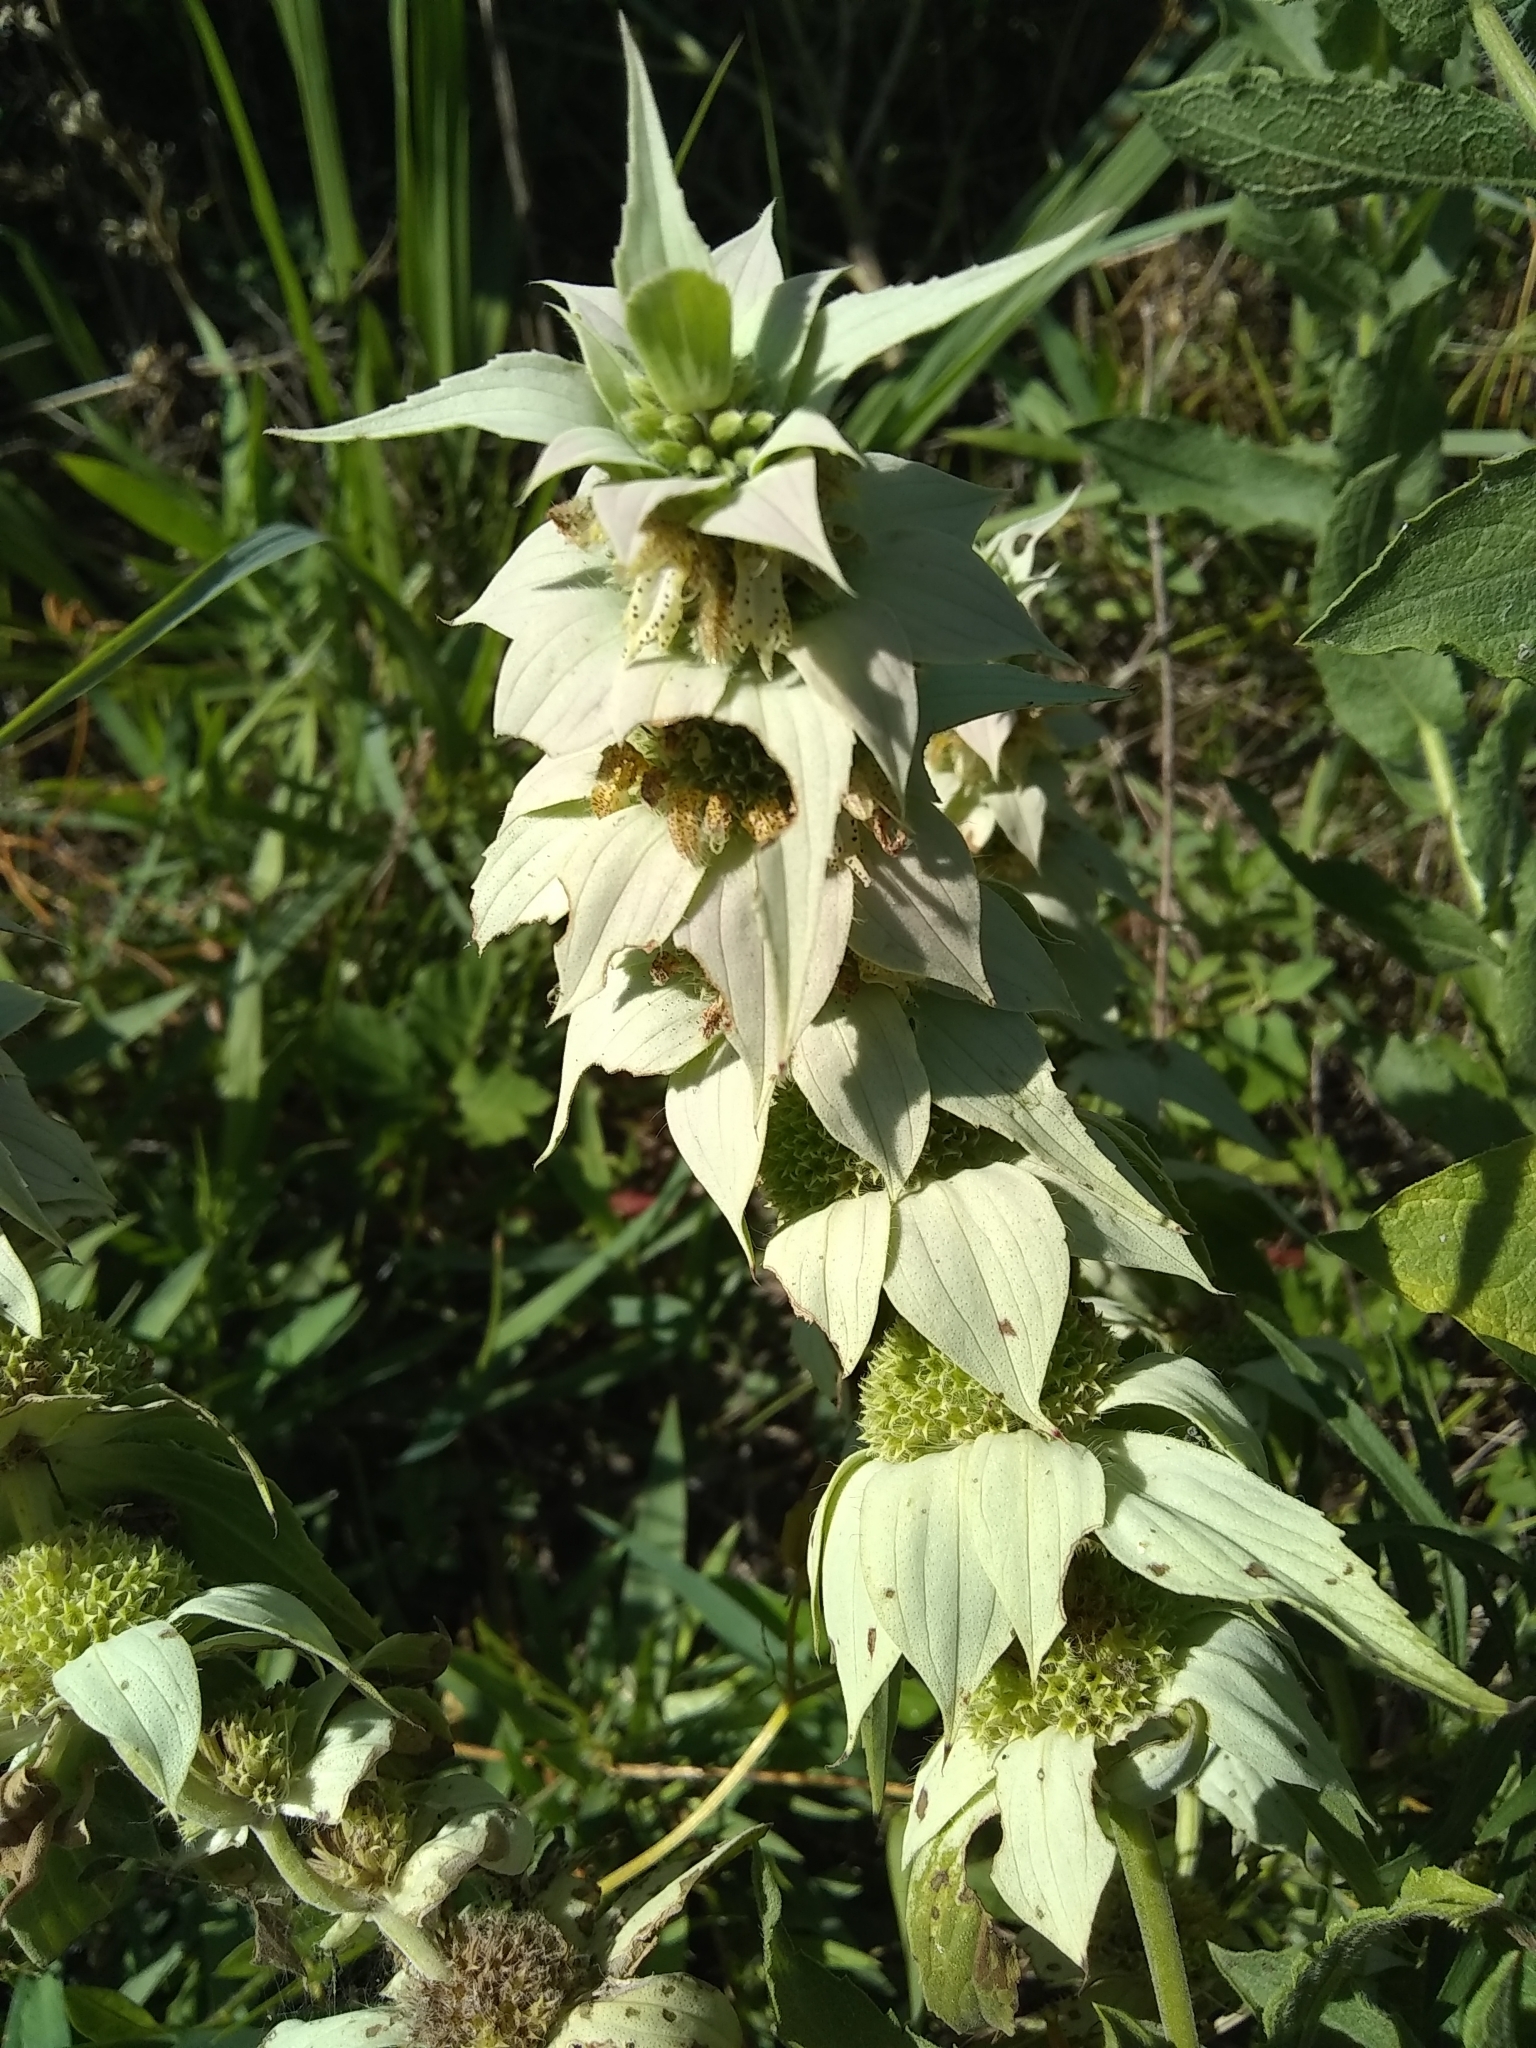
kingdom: Plantae
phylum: Tracheophyta
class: Magnoliopsida
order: Lamiales
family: Lamiaceae
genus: Monarda
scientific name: Monarda punctata
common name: Dotted monarda
